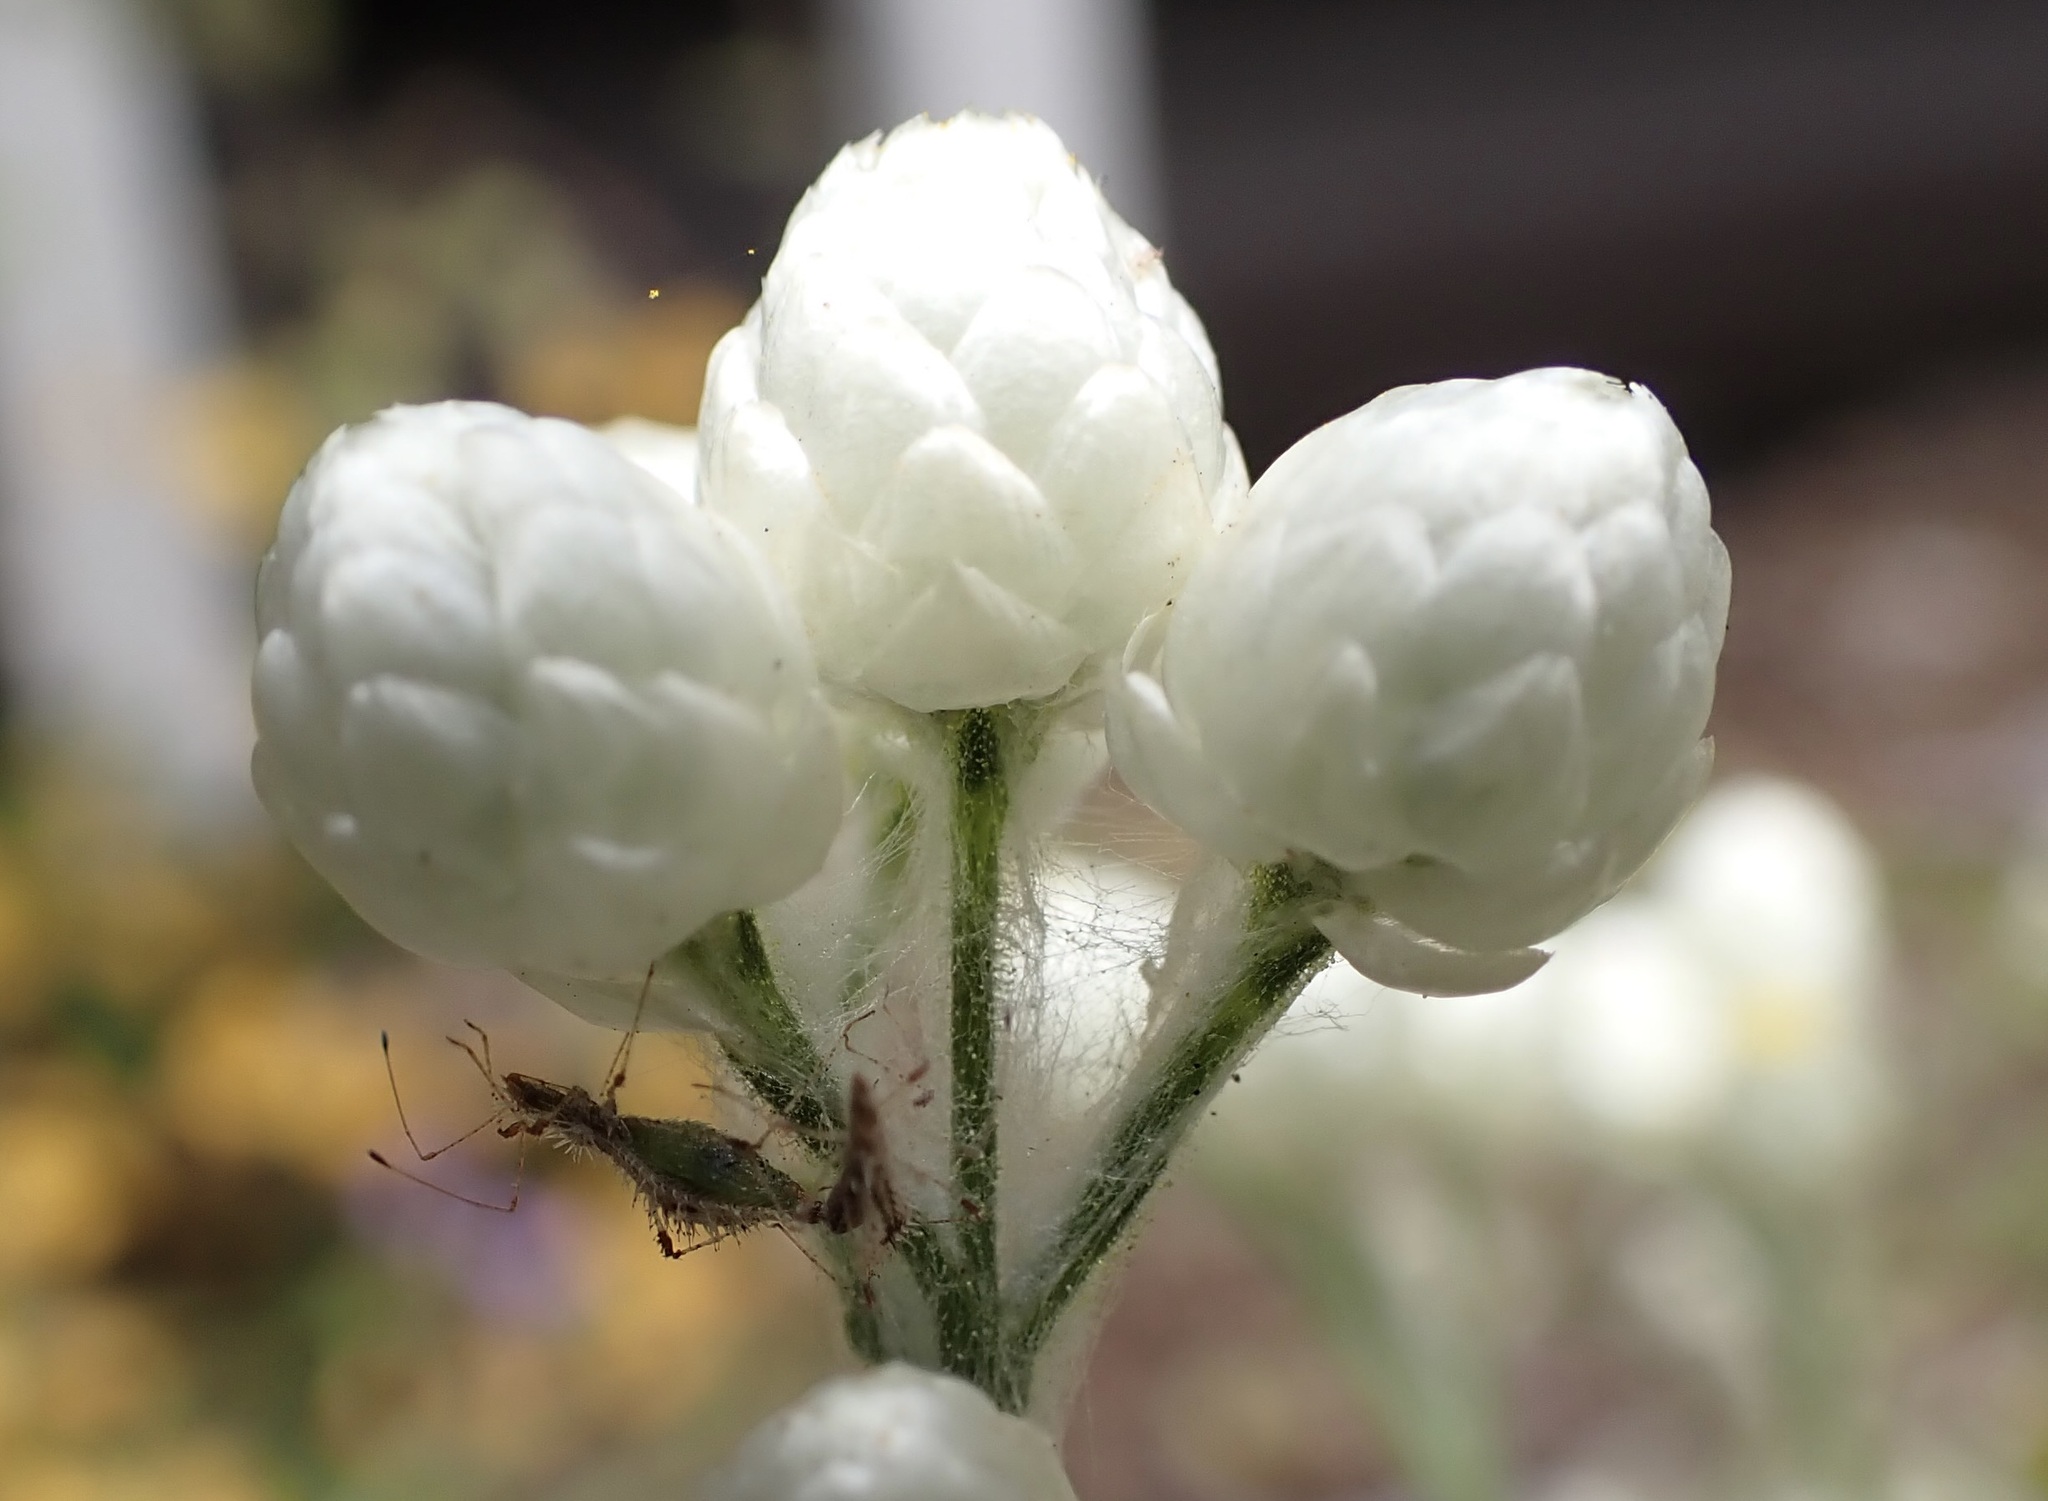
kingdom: Animalia
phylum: Arthropoda
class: Insecta
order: Hemiptera
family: Berytidae
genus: Hoplinus
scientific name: Hoplinus echinatus
